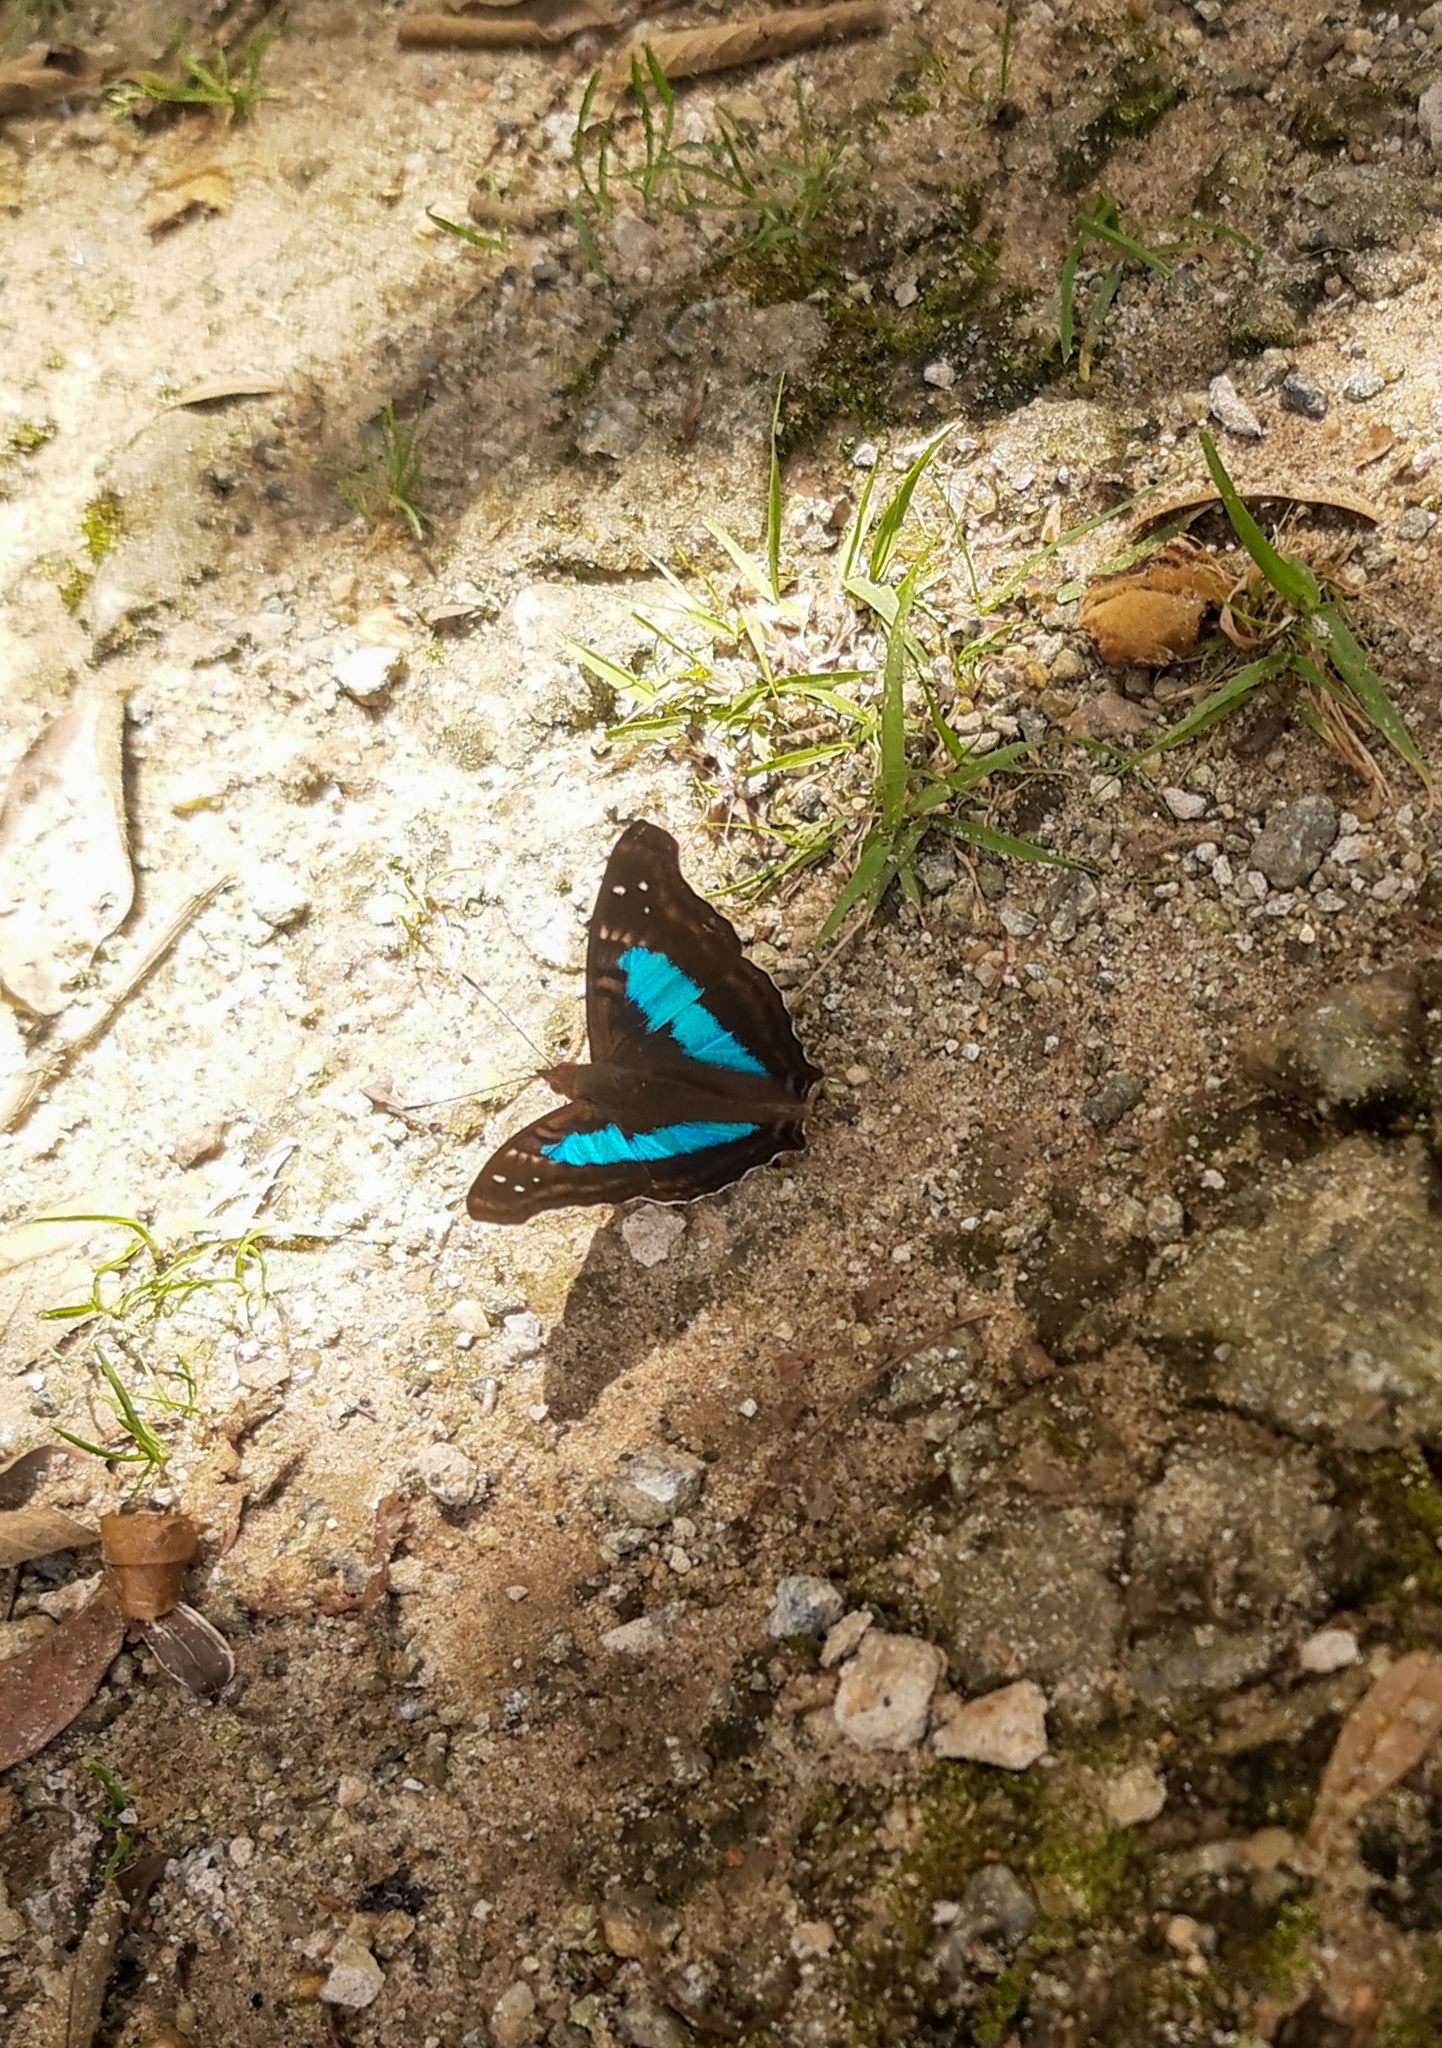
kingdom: Animalia
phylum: Arthropoda
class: Insecta
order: Lepidoptera
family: Nymphalidae
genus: Doxocopa
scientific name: Doxocopa laurentia
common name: Turquoise emperor
